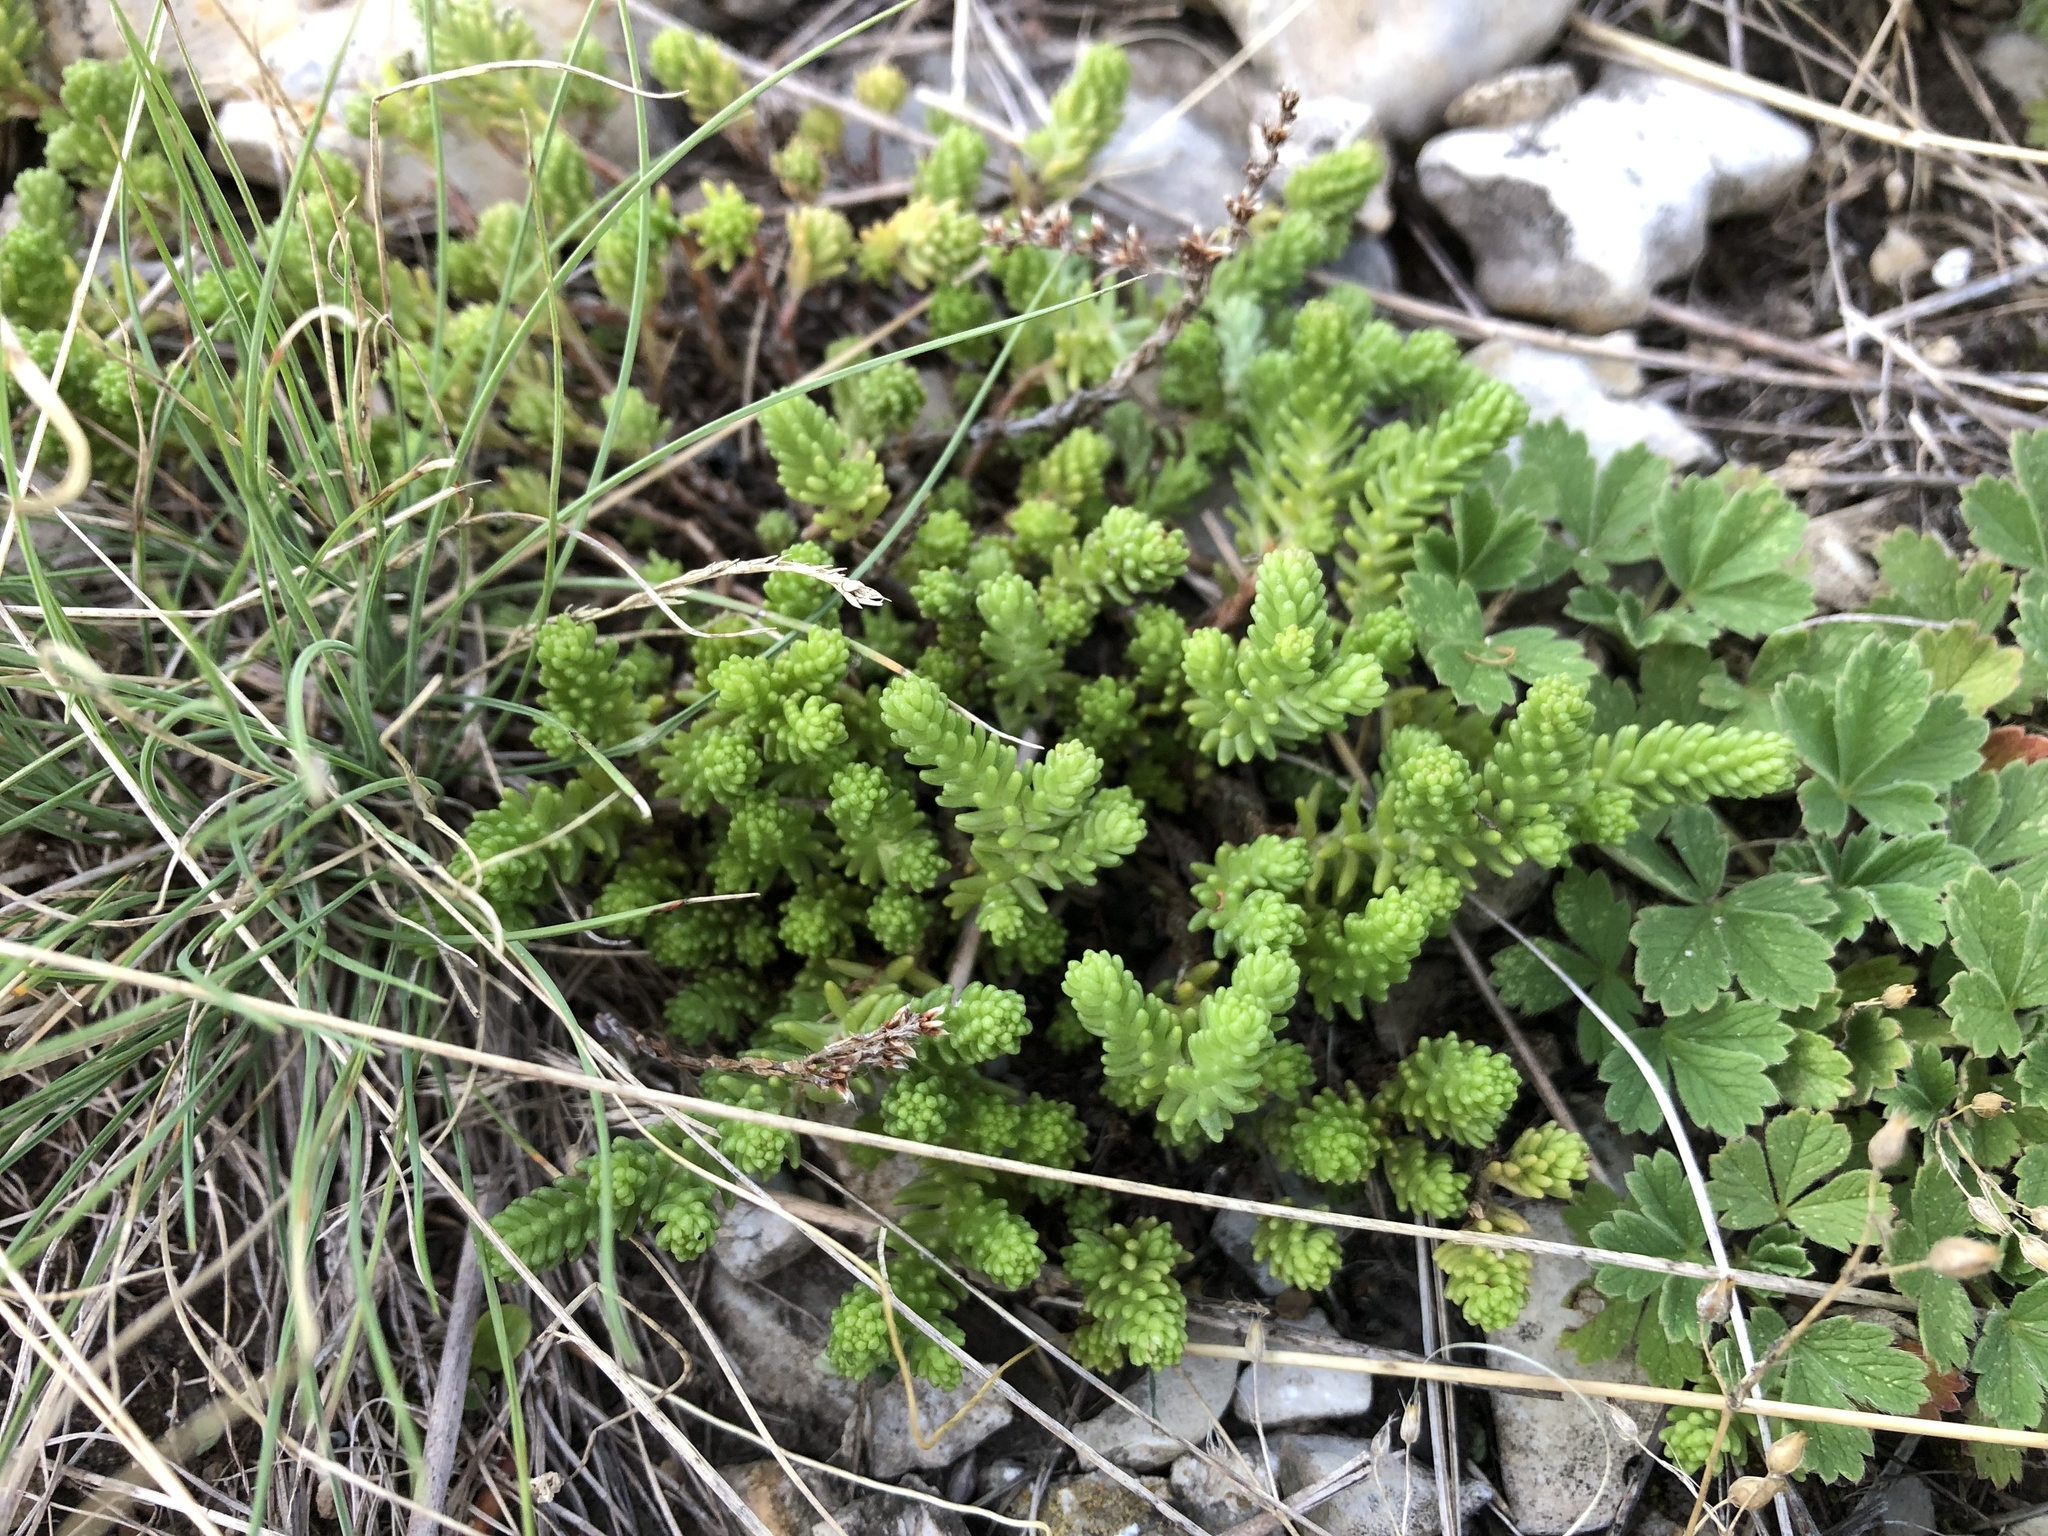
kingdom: Plantae
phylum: Tracheophyta
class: Magnoliopsida
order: Saxifragales
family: Crassulaceae
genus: Sedum
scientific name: Sedum sexangulare
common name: Tasteless stonecrop
